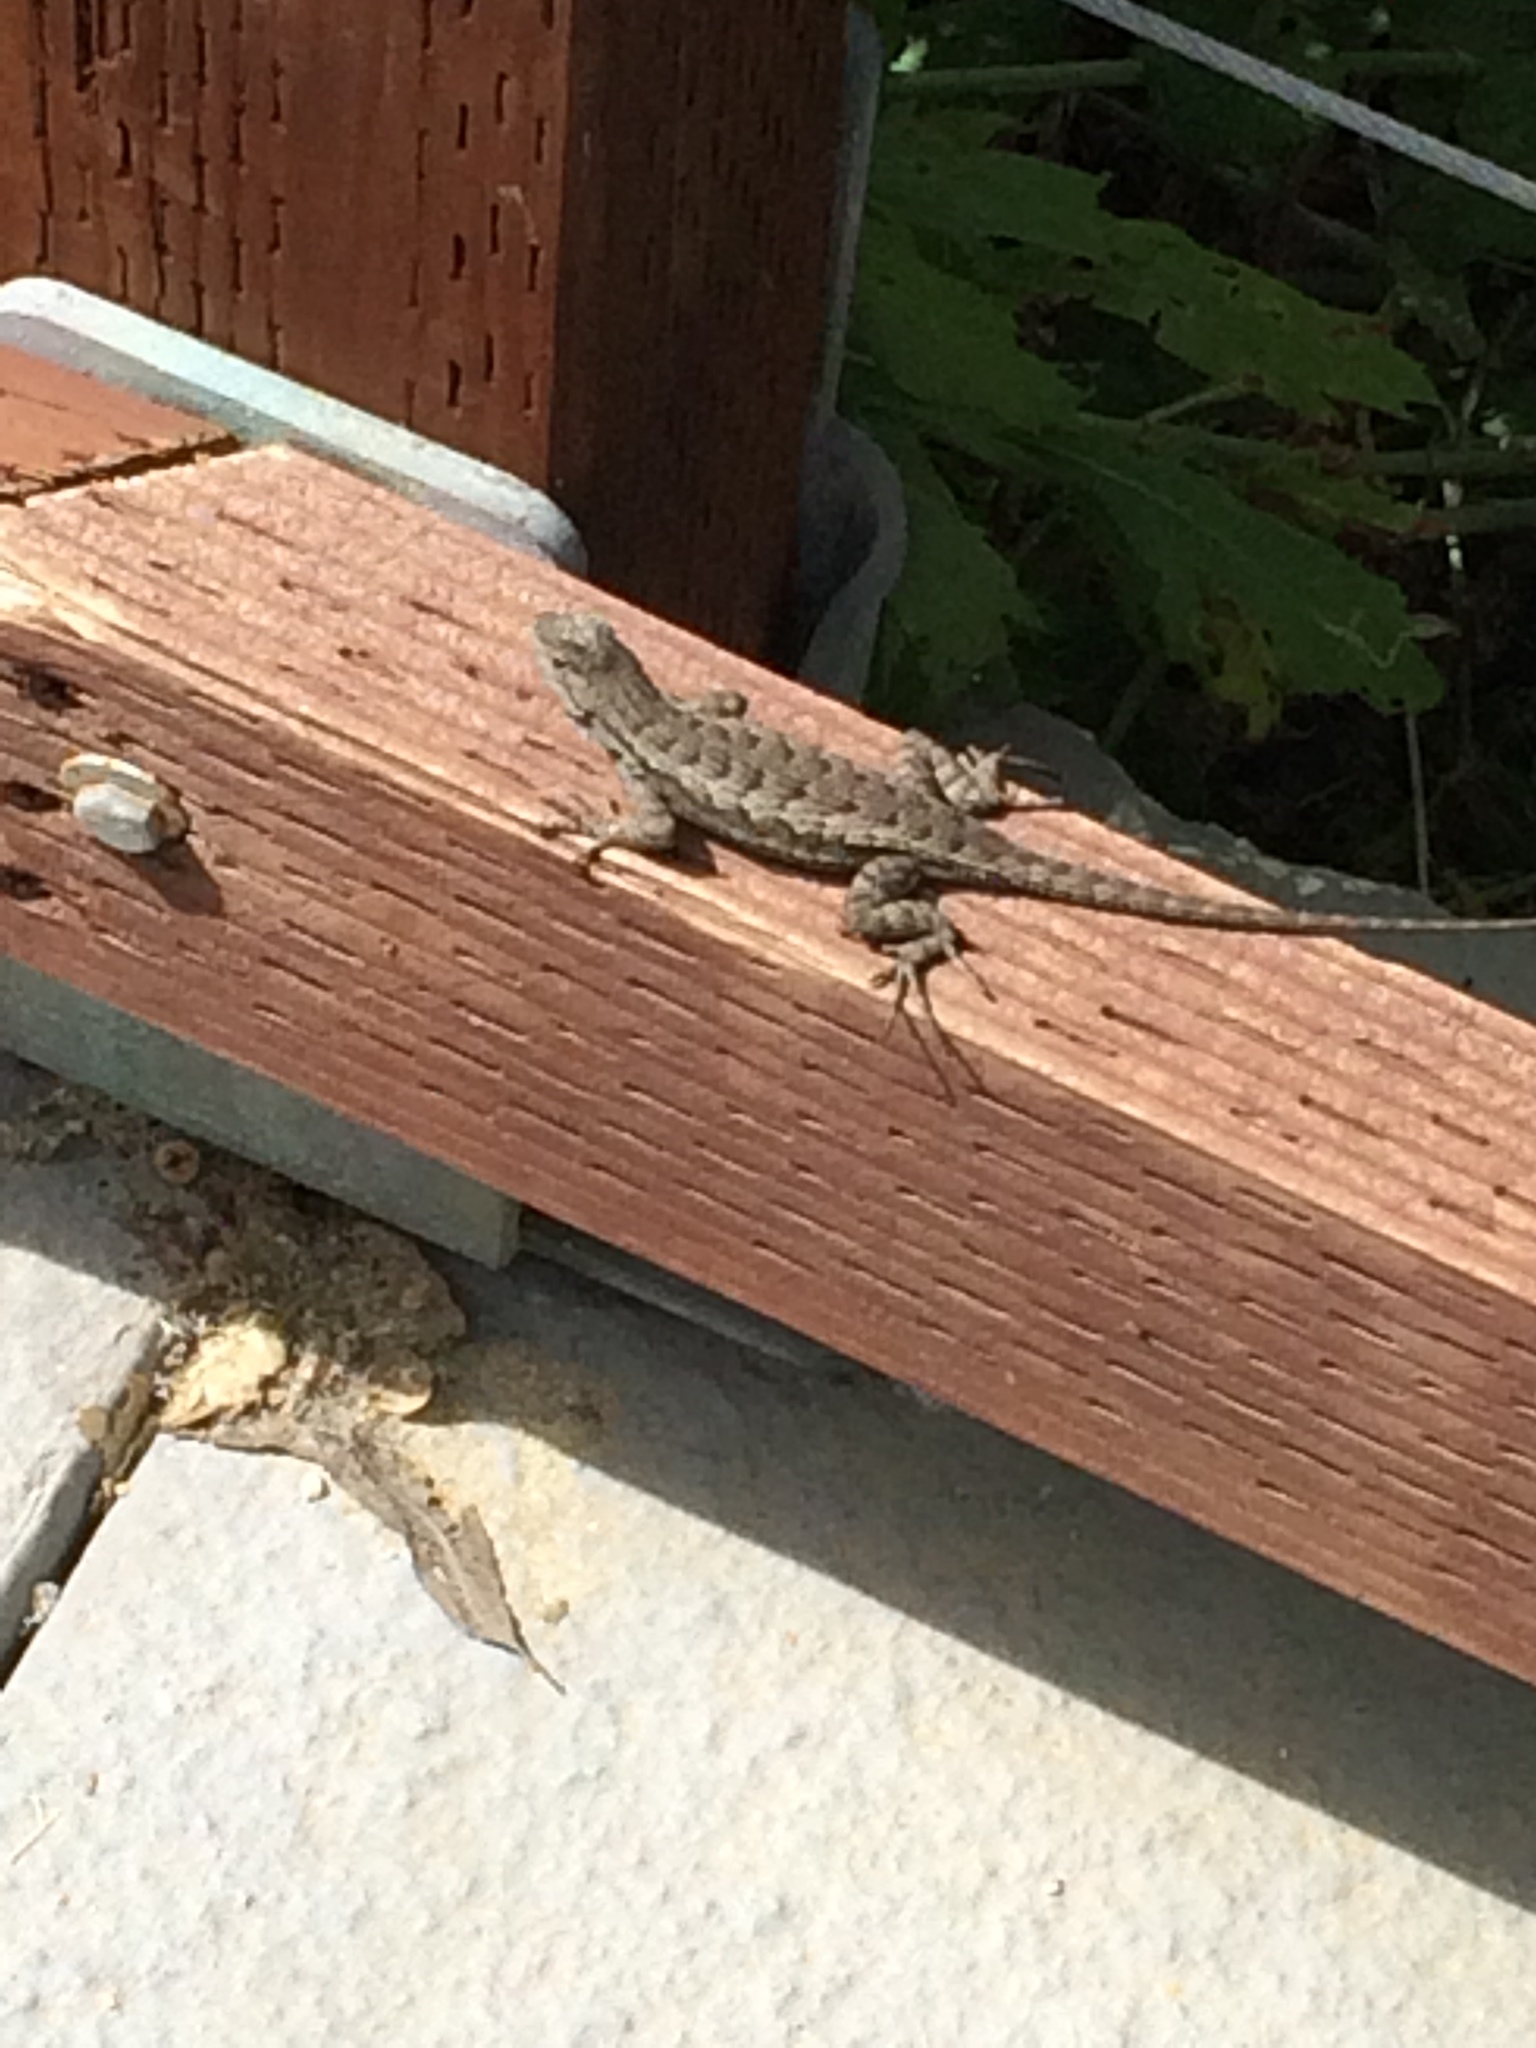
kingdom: Animalia
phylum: Chordata
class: Squamata
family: Phrynosomatidae
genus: Sceloporus
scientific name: Sceloporus occidentalis
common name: Western fence lizard
